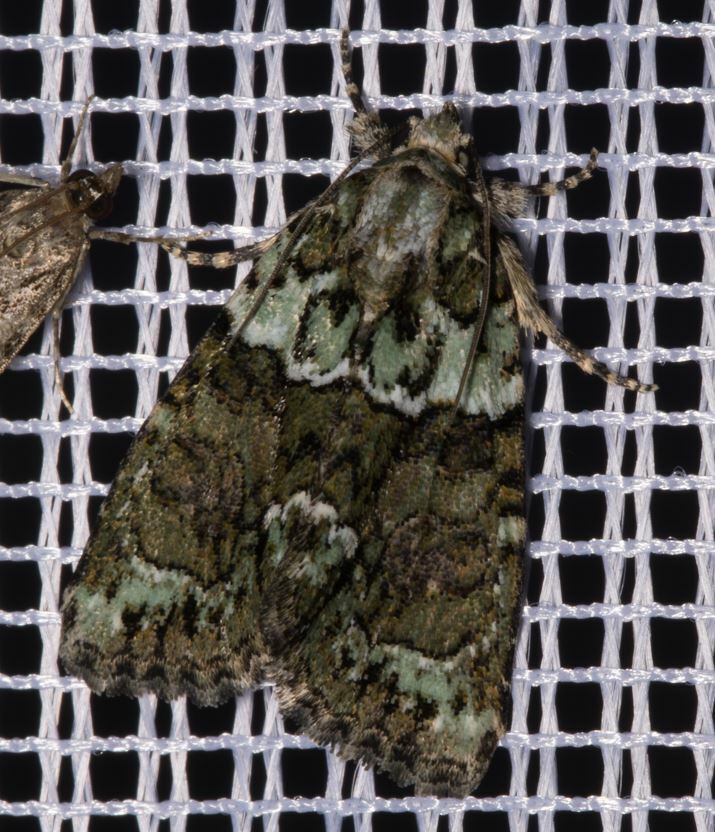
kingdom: Animalia
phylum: Arthropoda
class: Insecta
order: Lepidoptera
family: Noctuidae
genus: Cryphia
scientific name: Cryphia algae
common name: Tree-lichen beauty
